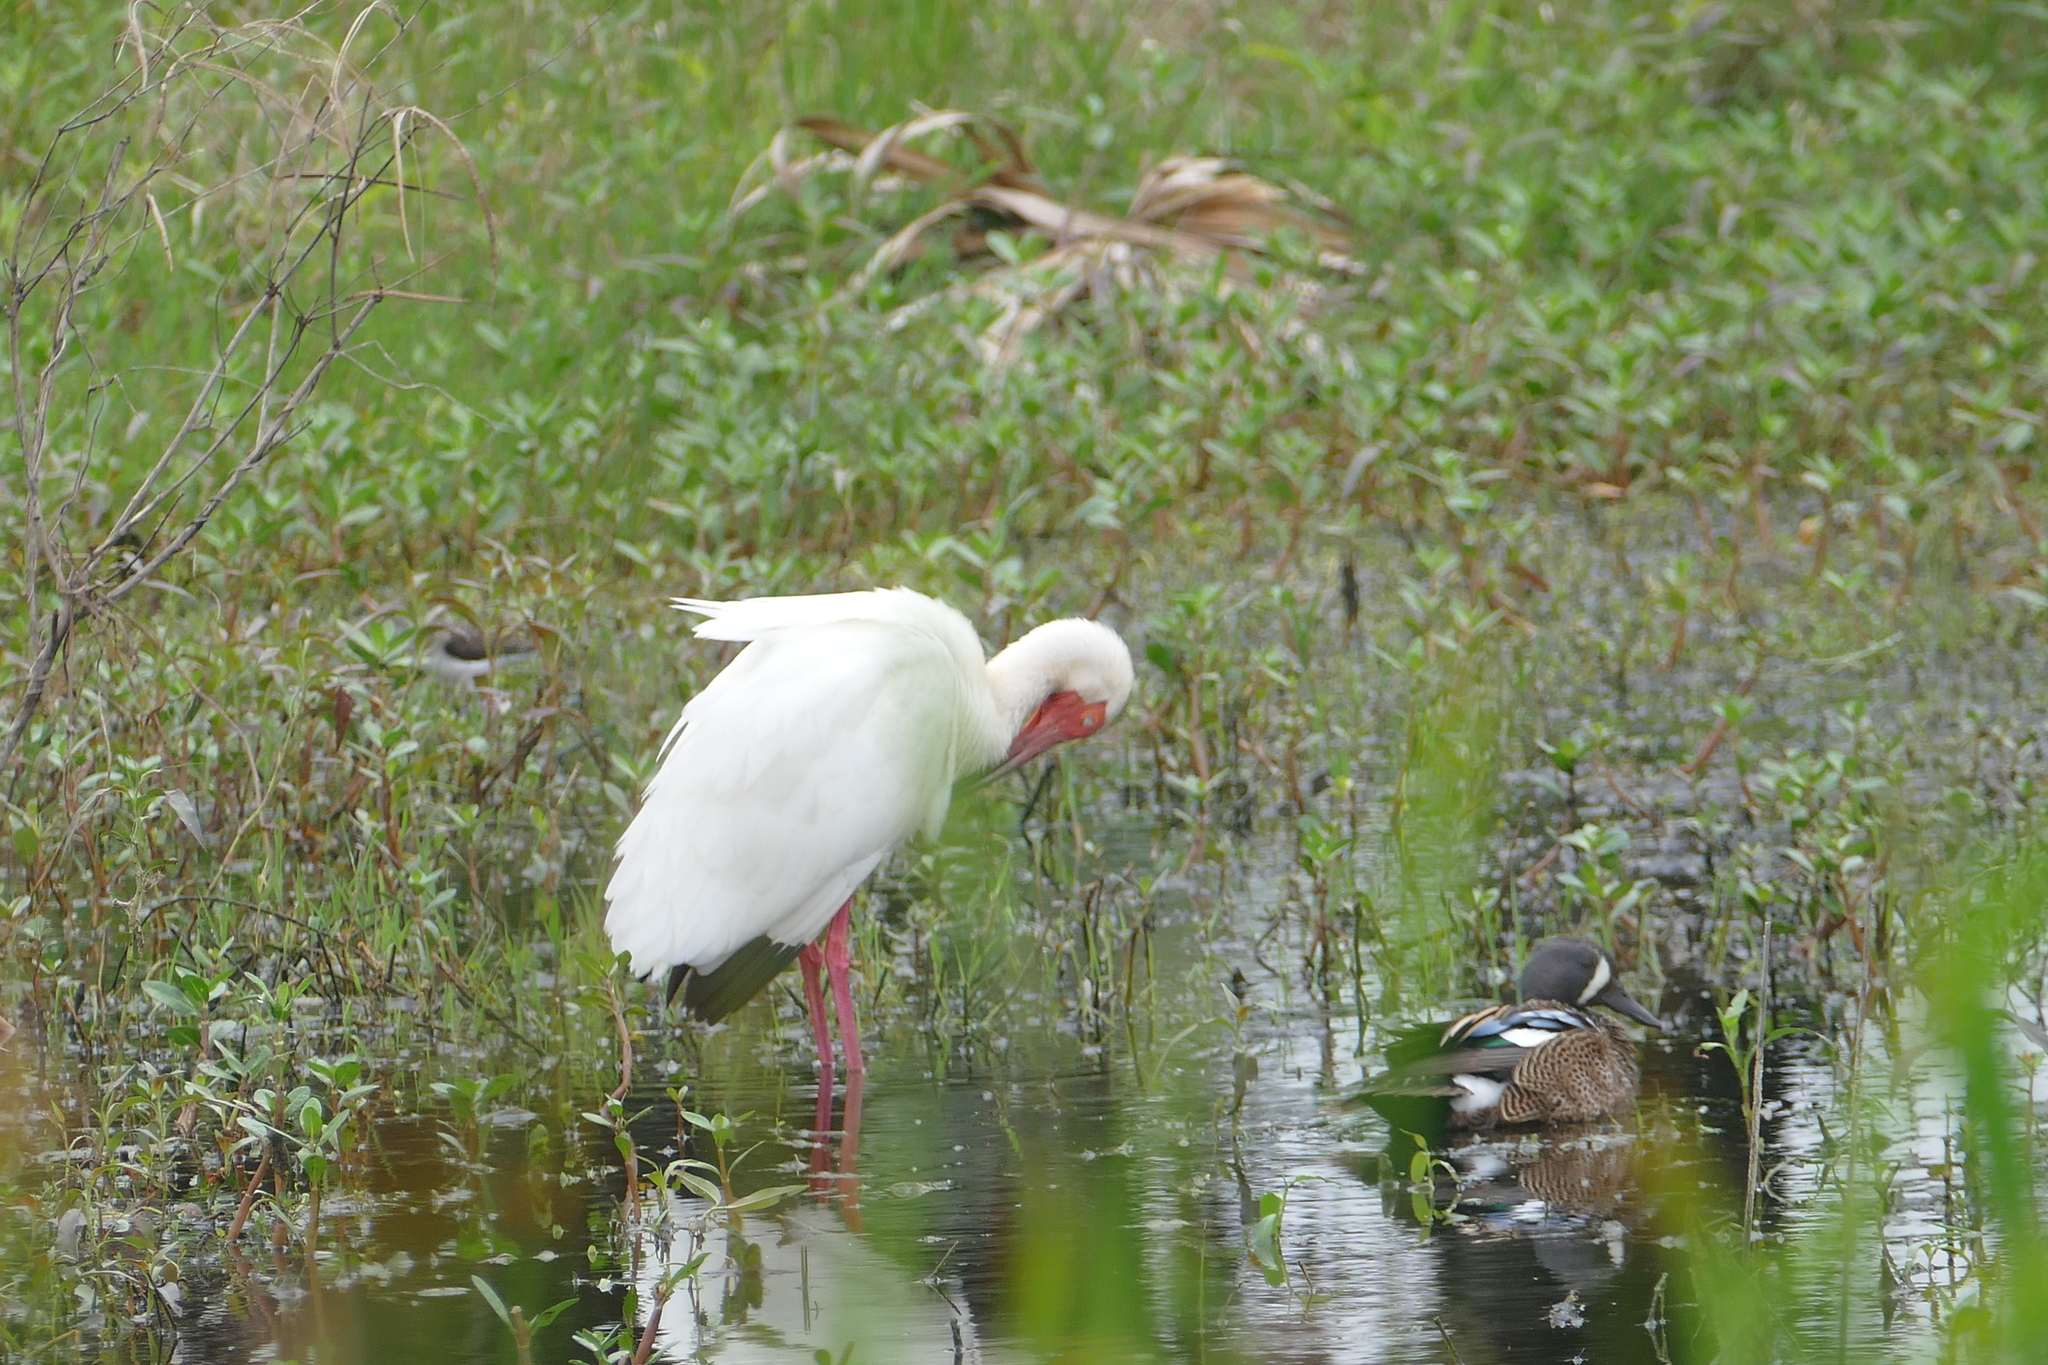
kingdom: Animalia
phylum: Chordata
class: Aves
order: Anseriformes
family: Anatidae
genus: Spatula
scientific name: Spatula discors
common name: Blue-winged teal
